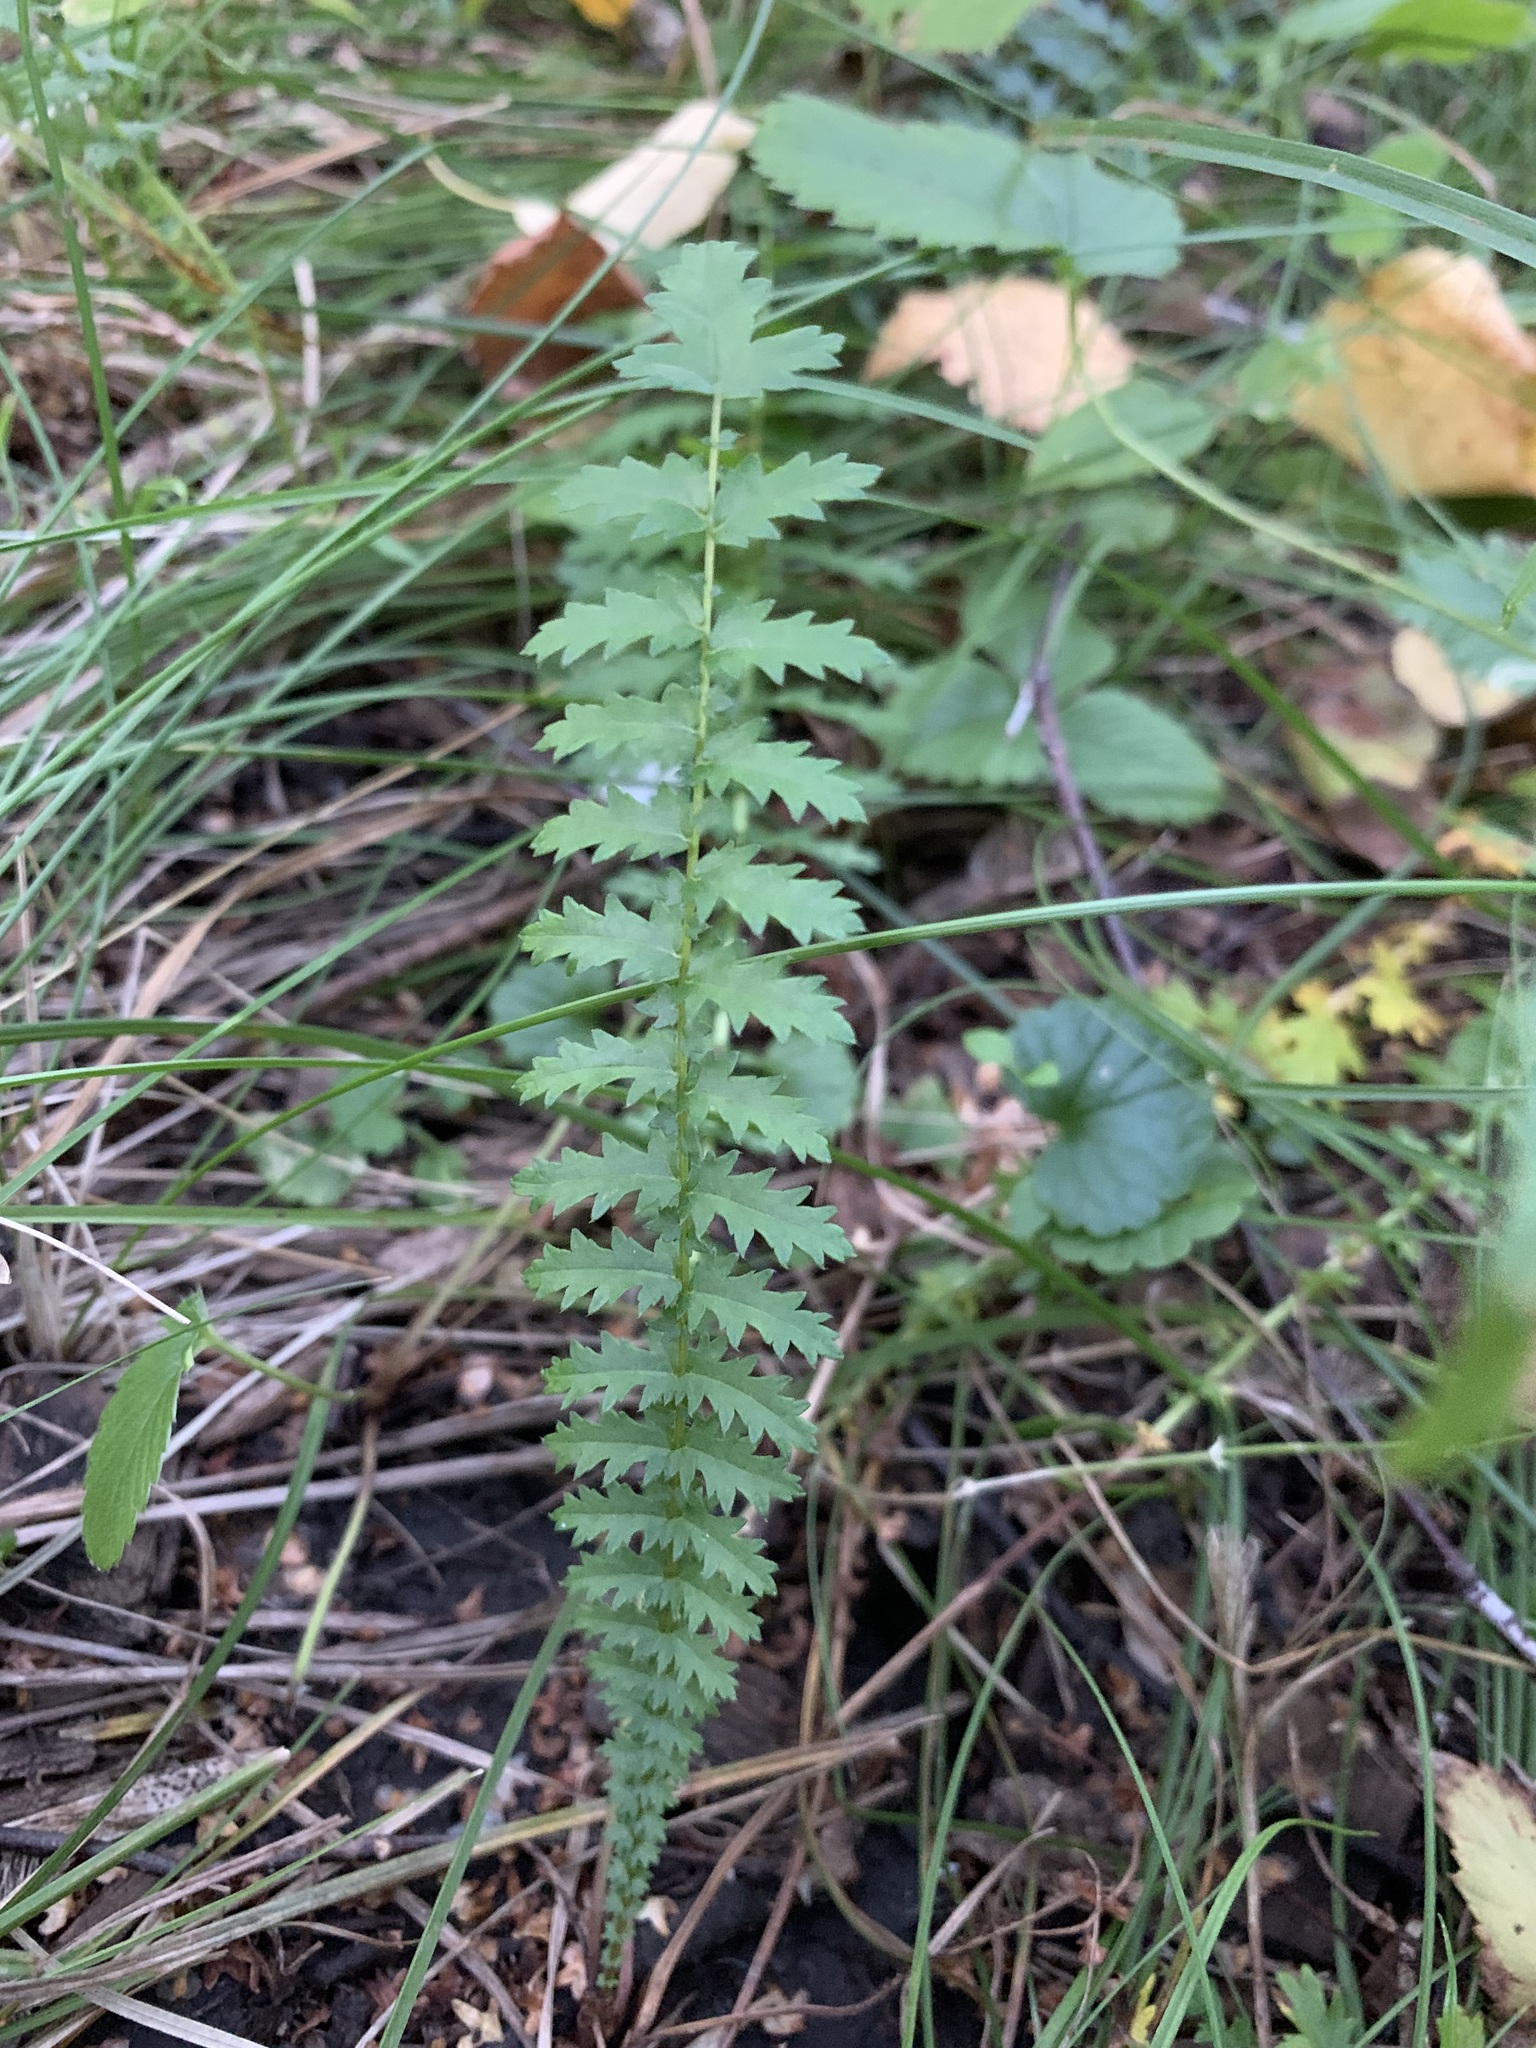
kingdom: Plantae
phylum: Tracheophyta
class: Magnoliopsida
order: Rosales
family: Rosaceae
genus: Filipendula
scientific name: Filipendula vulgaris
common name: Dropwort
